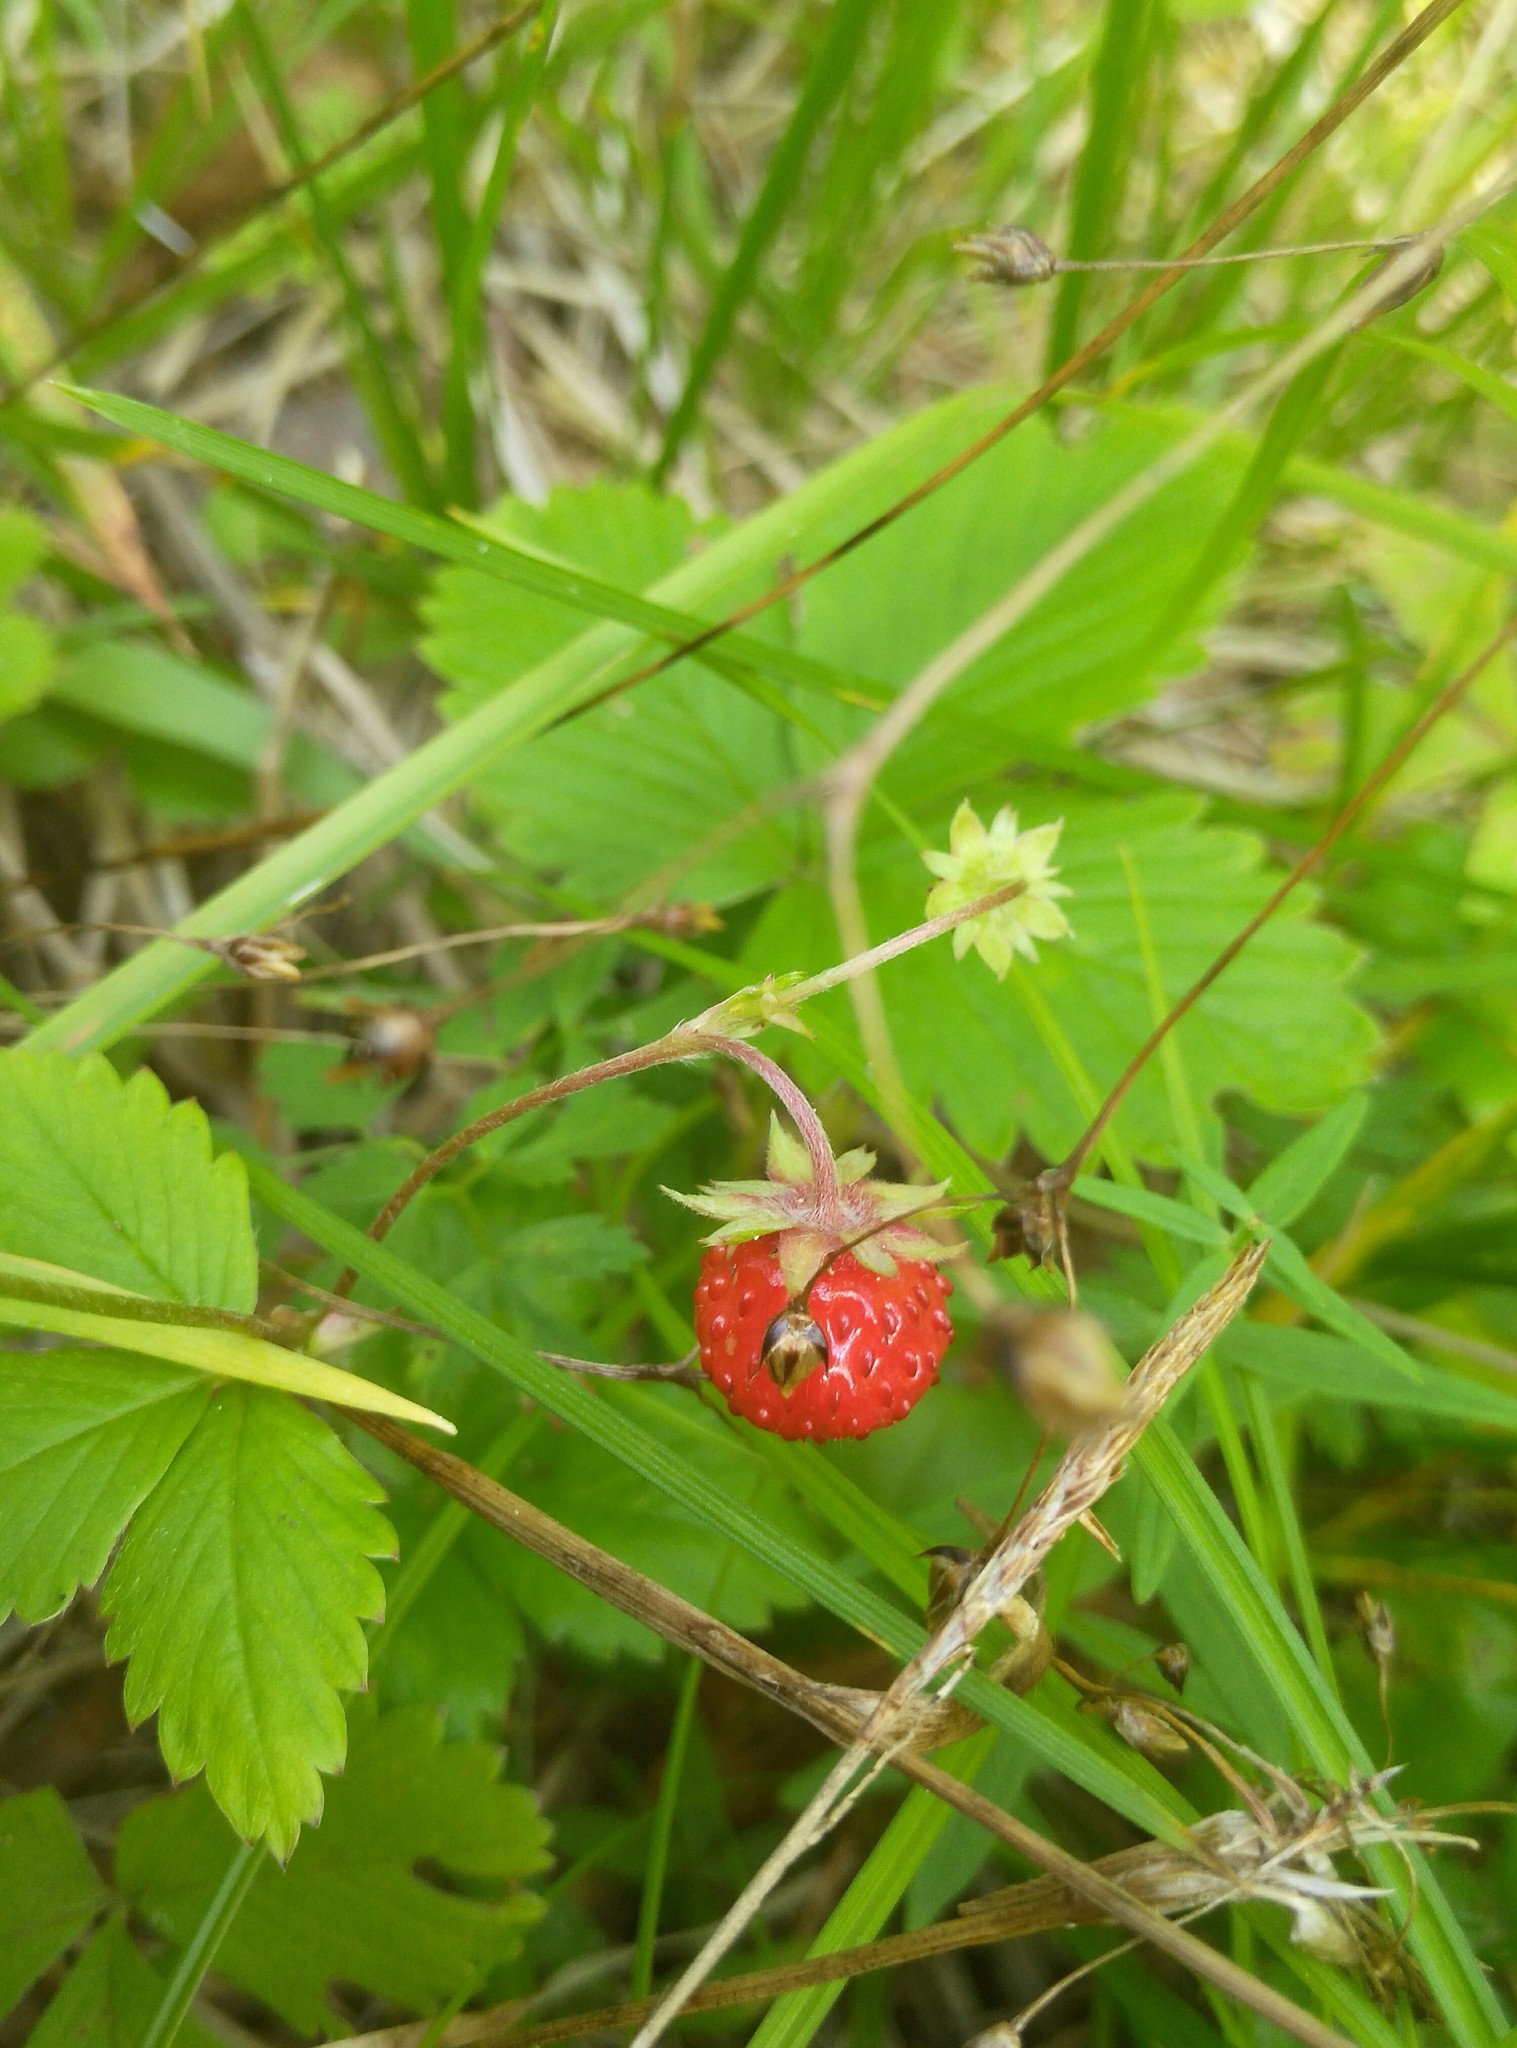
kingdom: Plantae
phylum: Tracheophyta
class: Magnoliopsida
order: Rosales
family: Rosaceae
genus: Fragaria
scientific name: Fragaria vesca
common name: Wild strawberry
